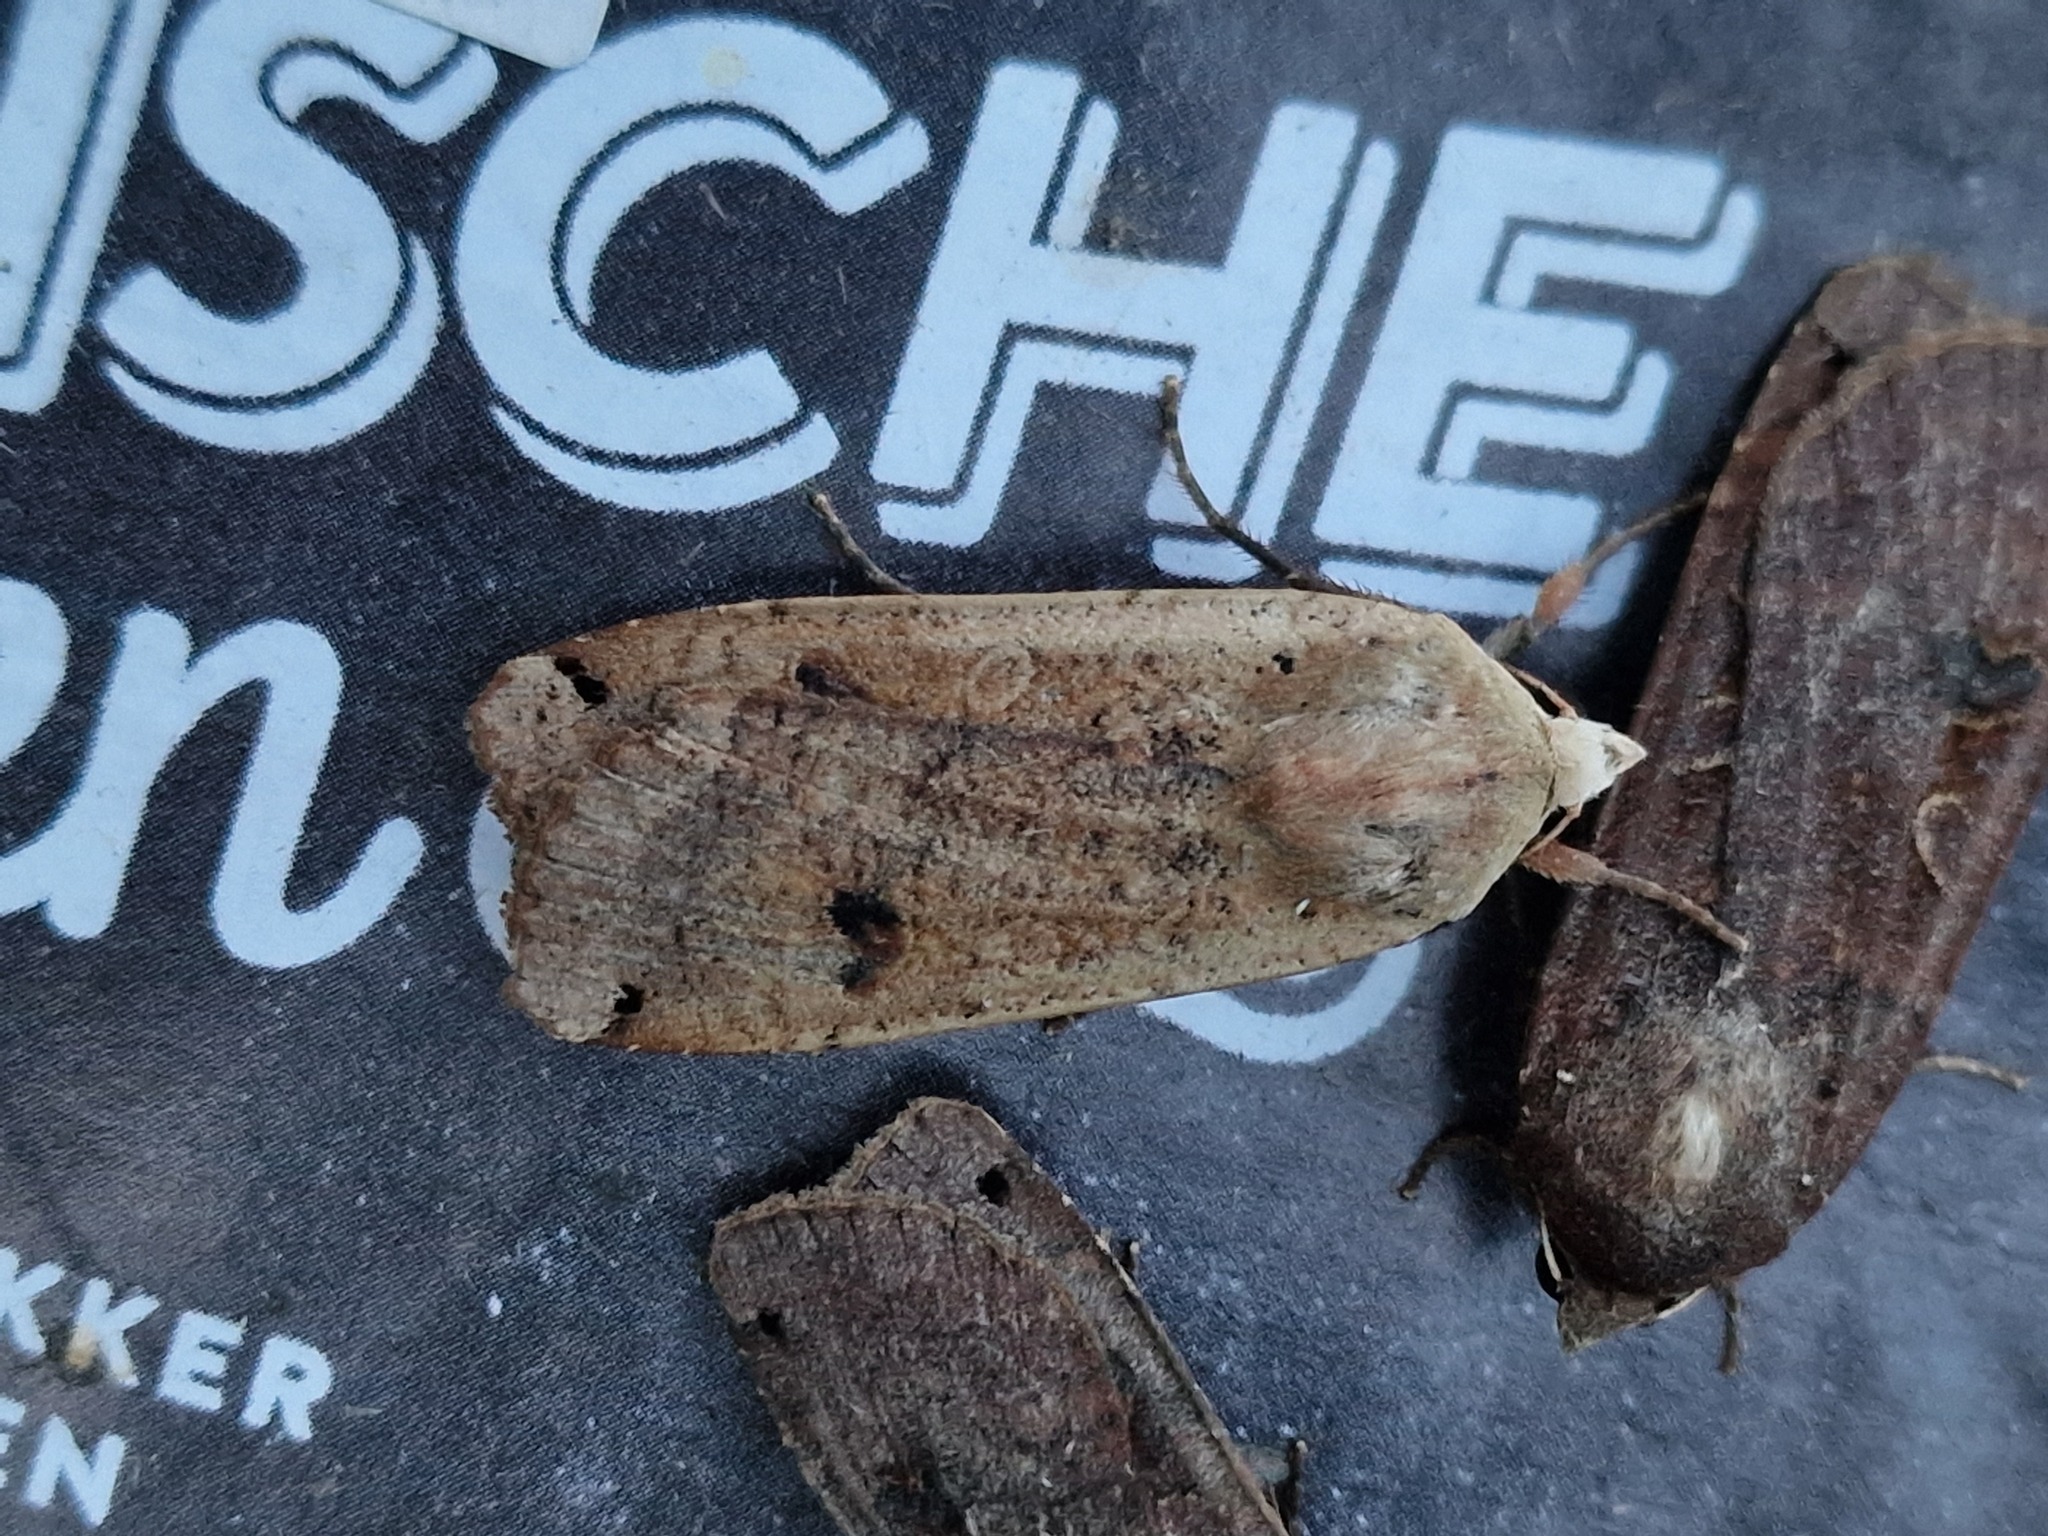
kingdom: Animalia
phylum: Arthropoda
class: Insecta
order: Lepidoptera
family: Noctuidae
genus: Noctua
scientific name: Noctua pronuba
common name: Large yellow underwing
